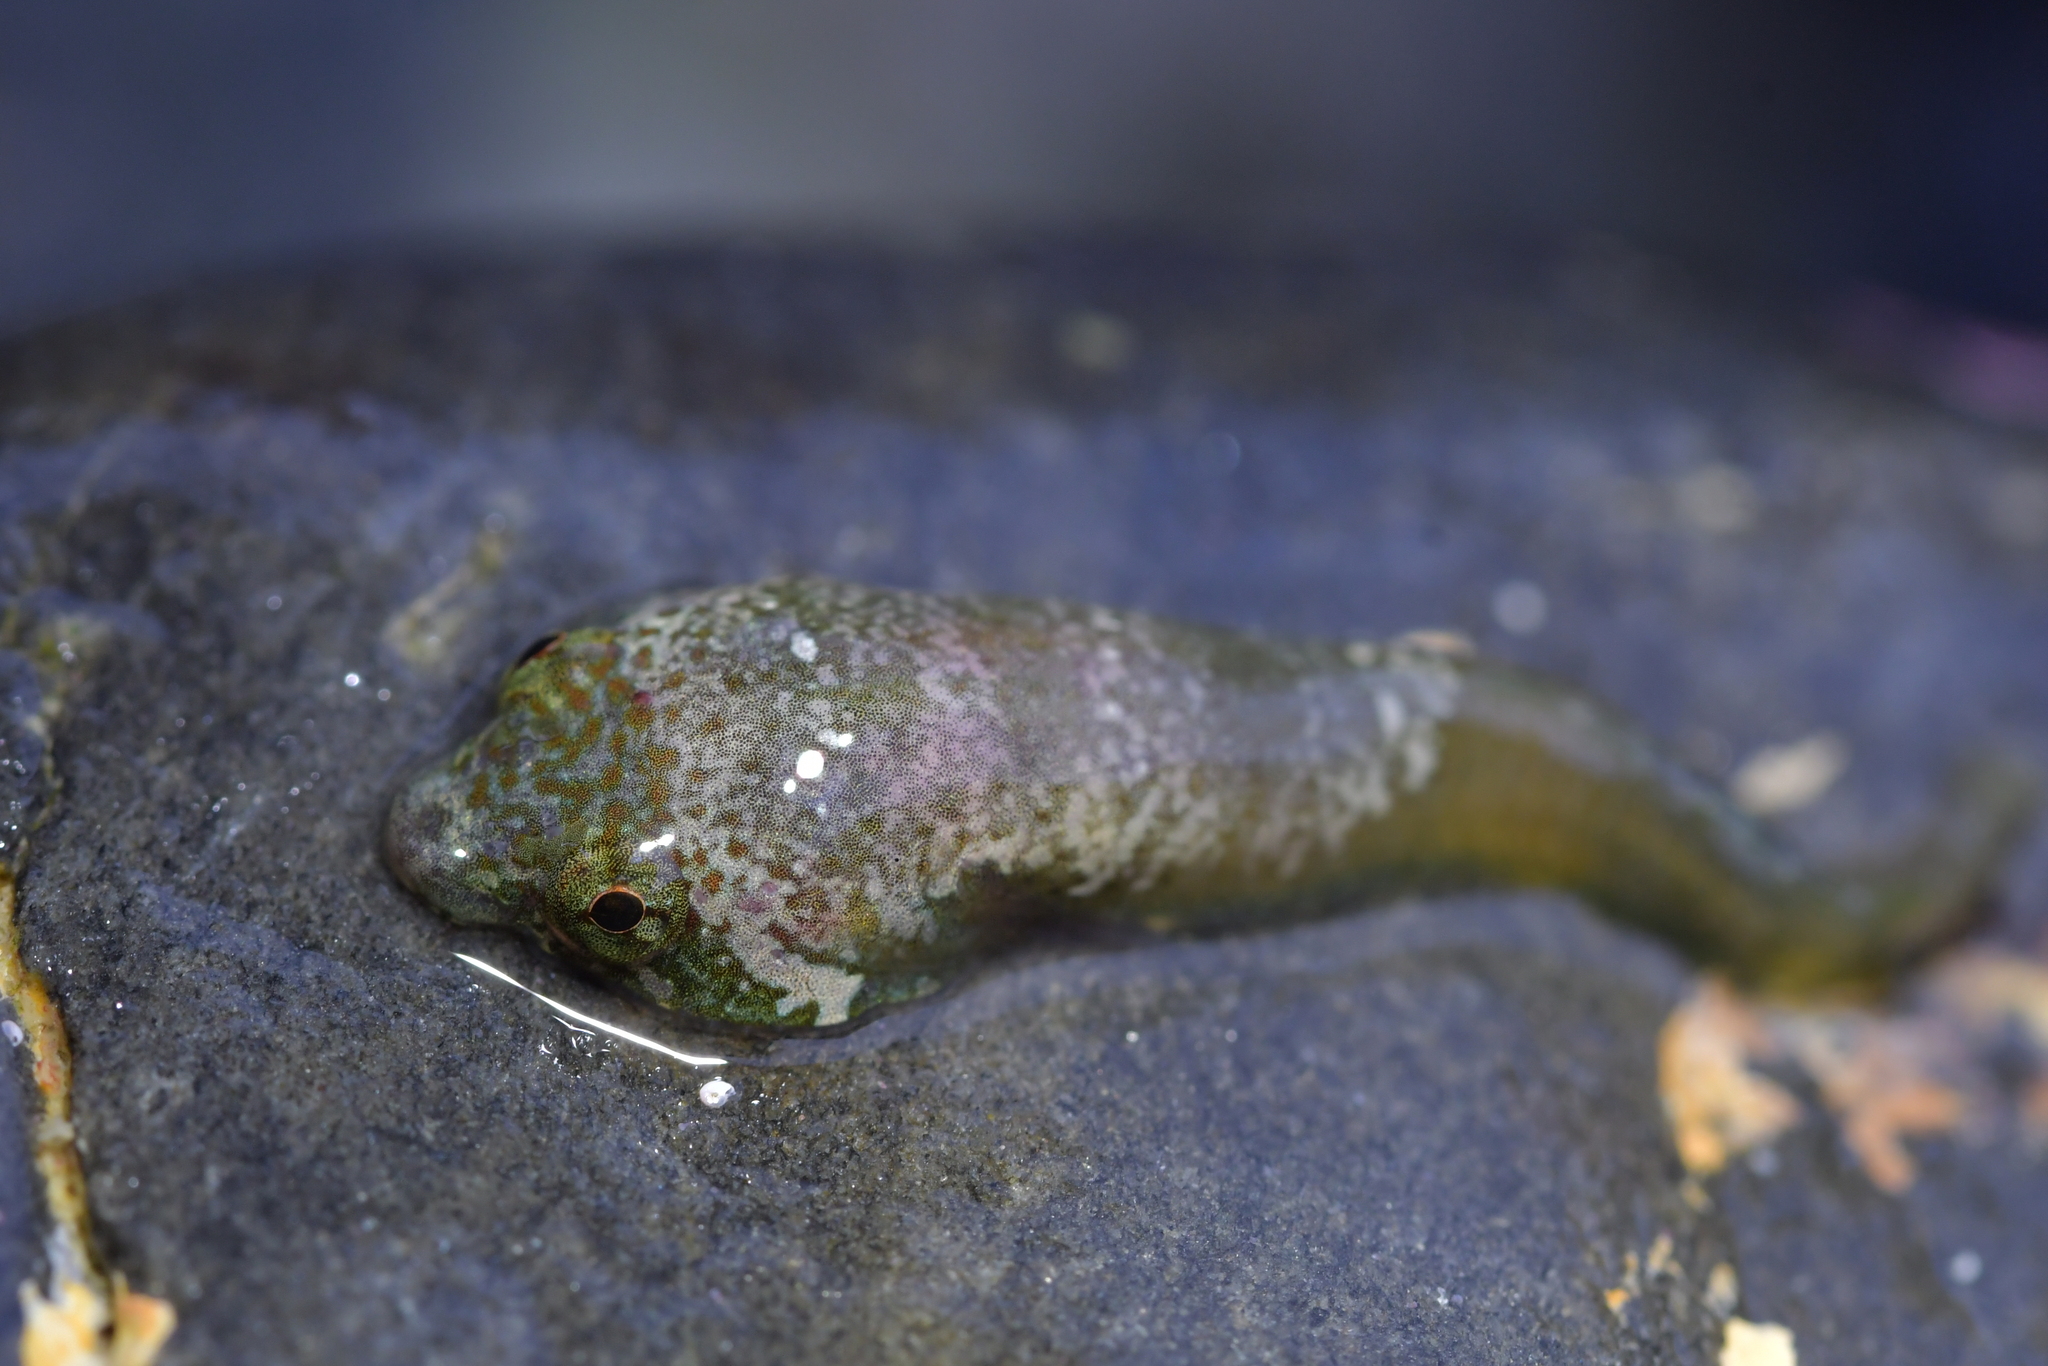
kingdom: Animalia
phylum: Chordata
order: Gobiesociformes
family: Gobiesocidae
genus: Trachelochismus
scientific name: Trachelochismus melobesia
